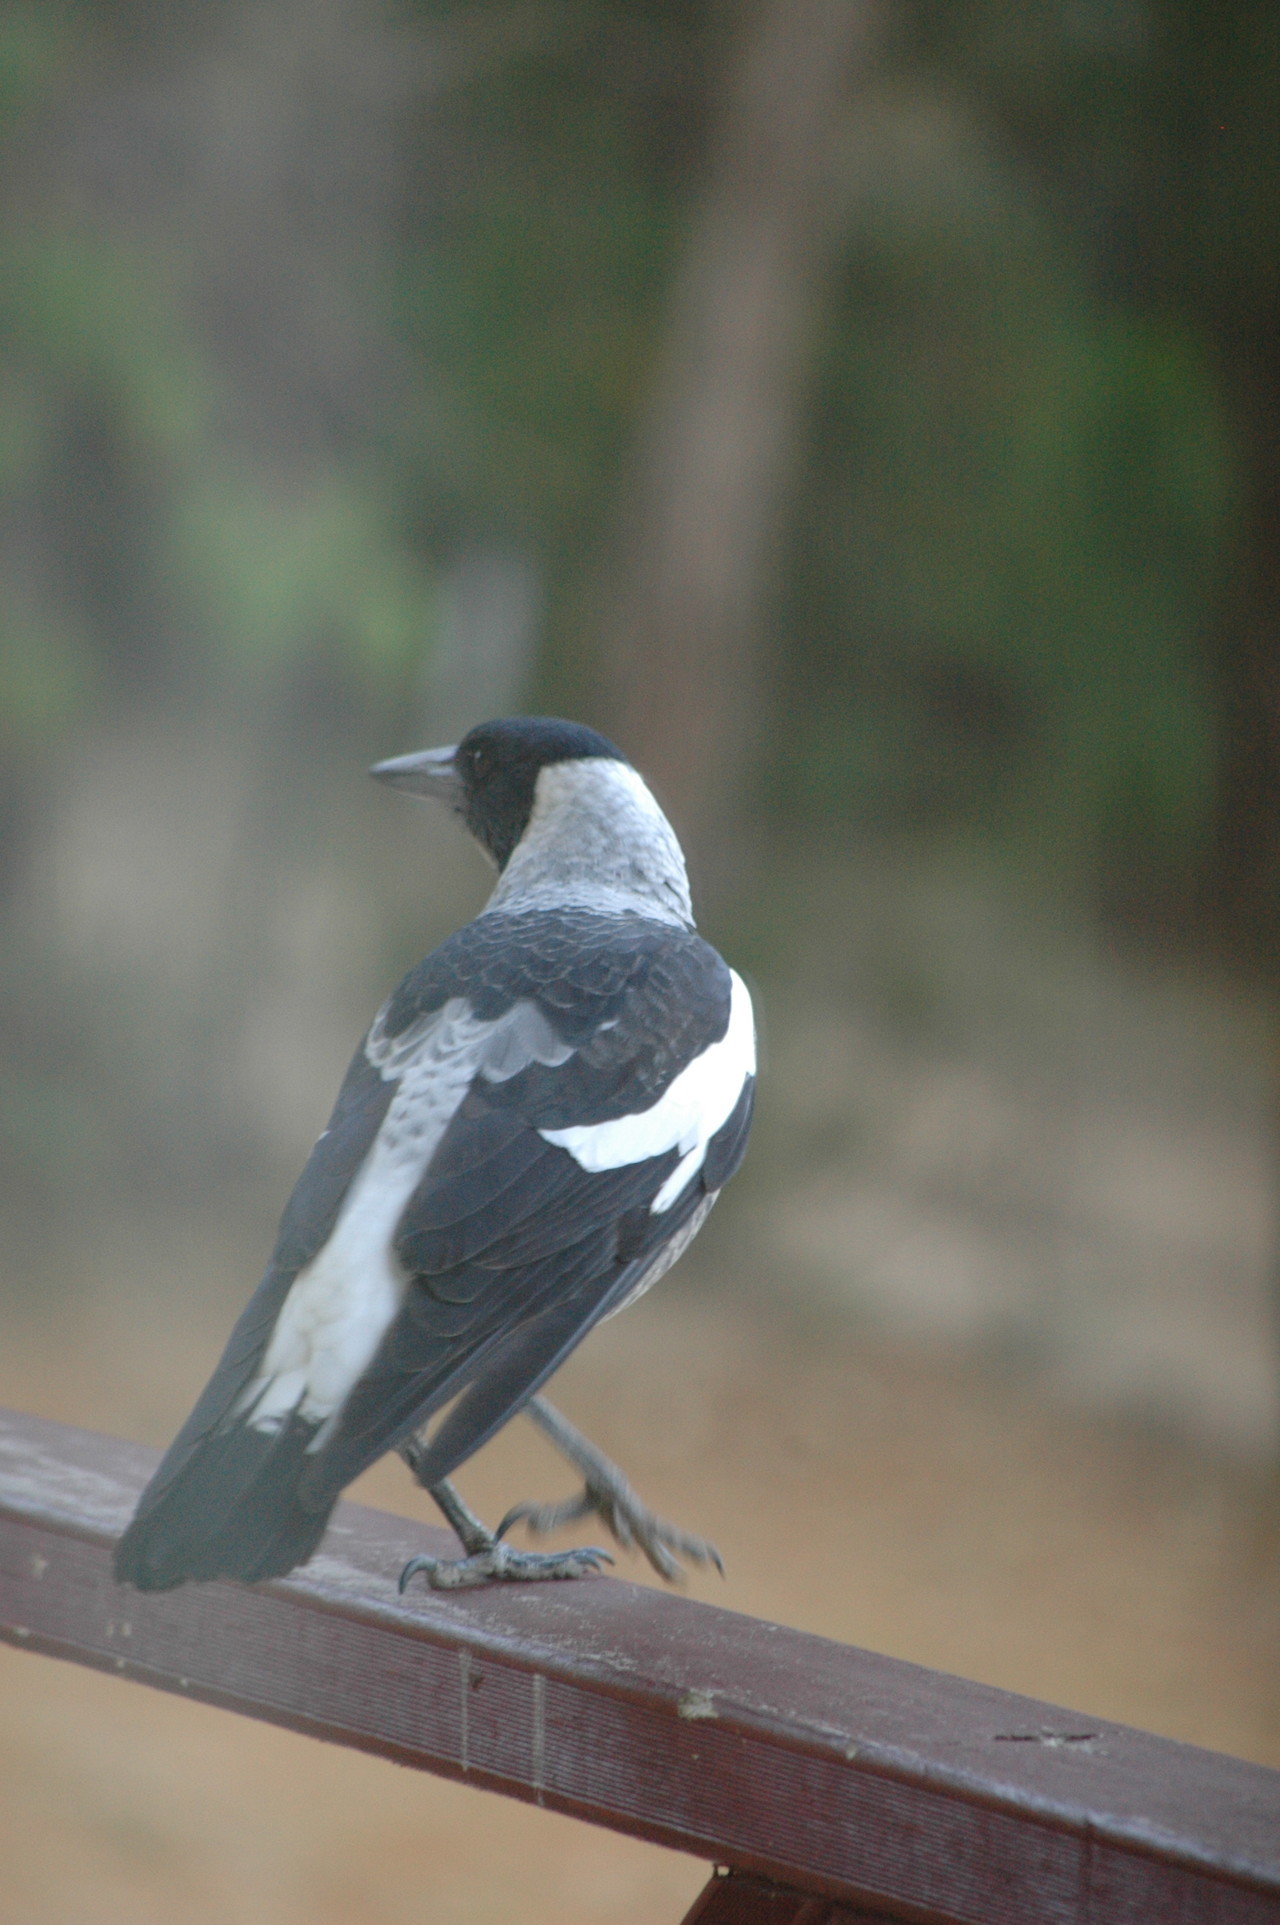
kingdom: Animalia
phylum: Chordata
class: Aves
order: Passeriformes
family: Cracticidae
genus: Gymnorhina
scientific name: Gymnorhina tibicen
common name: Australian magpie
